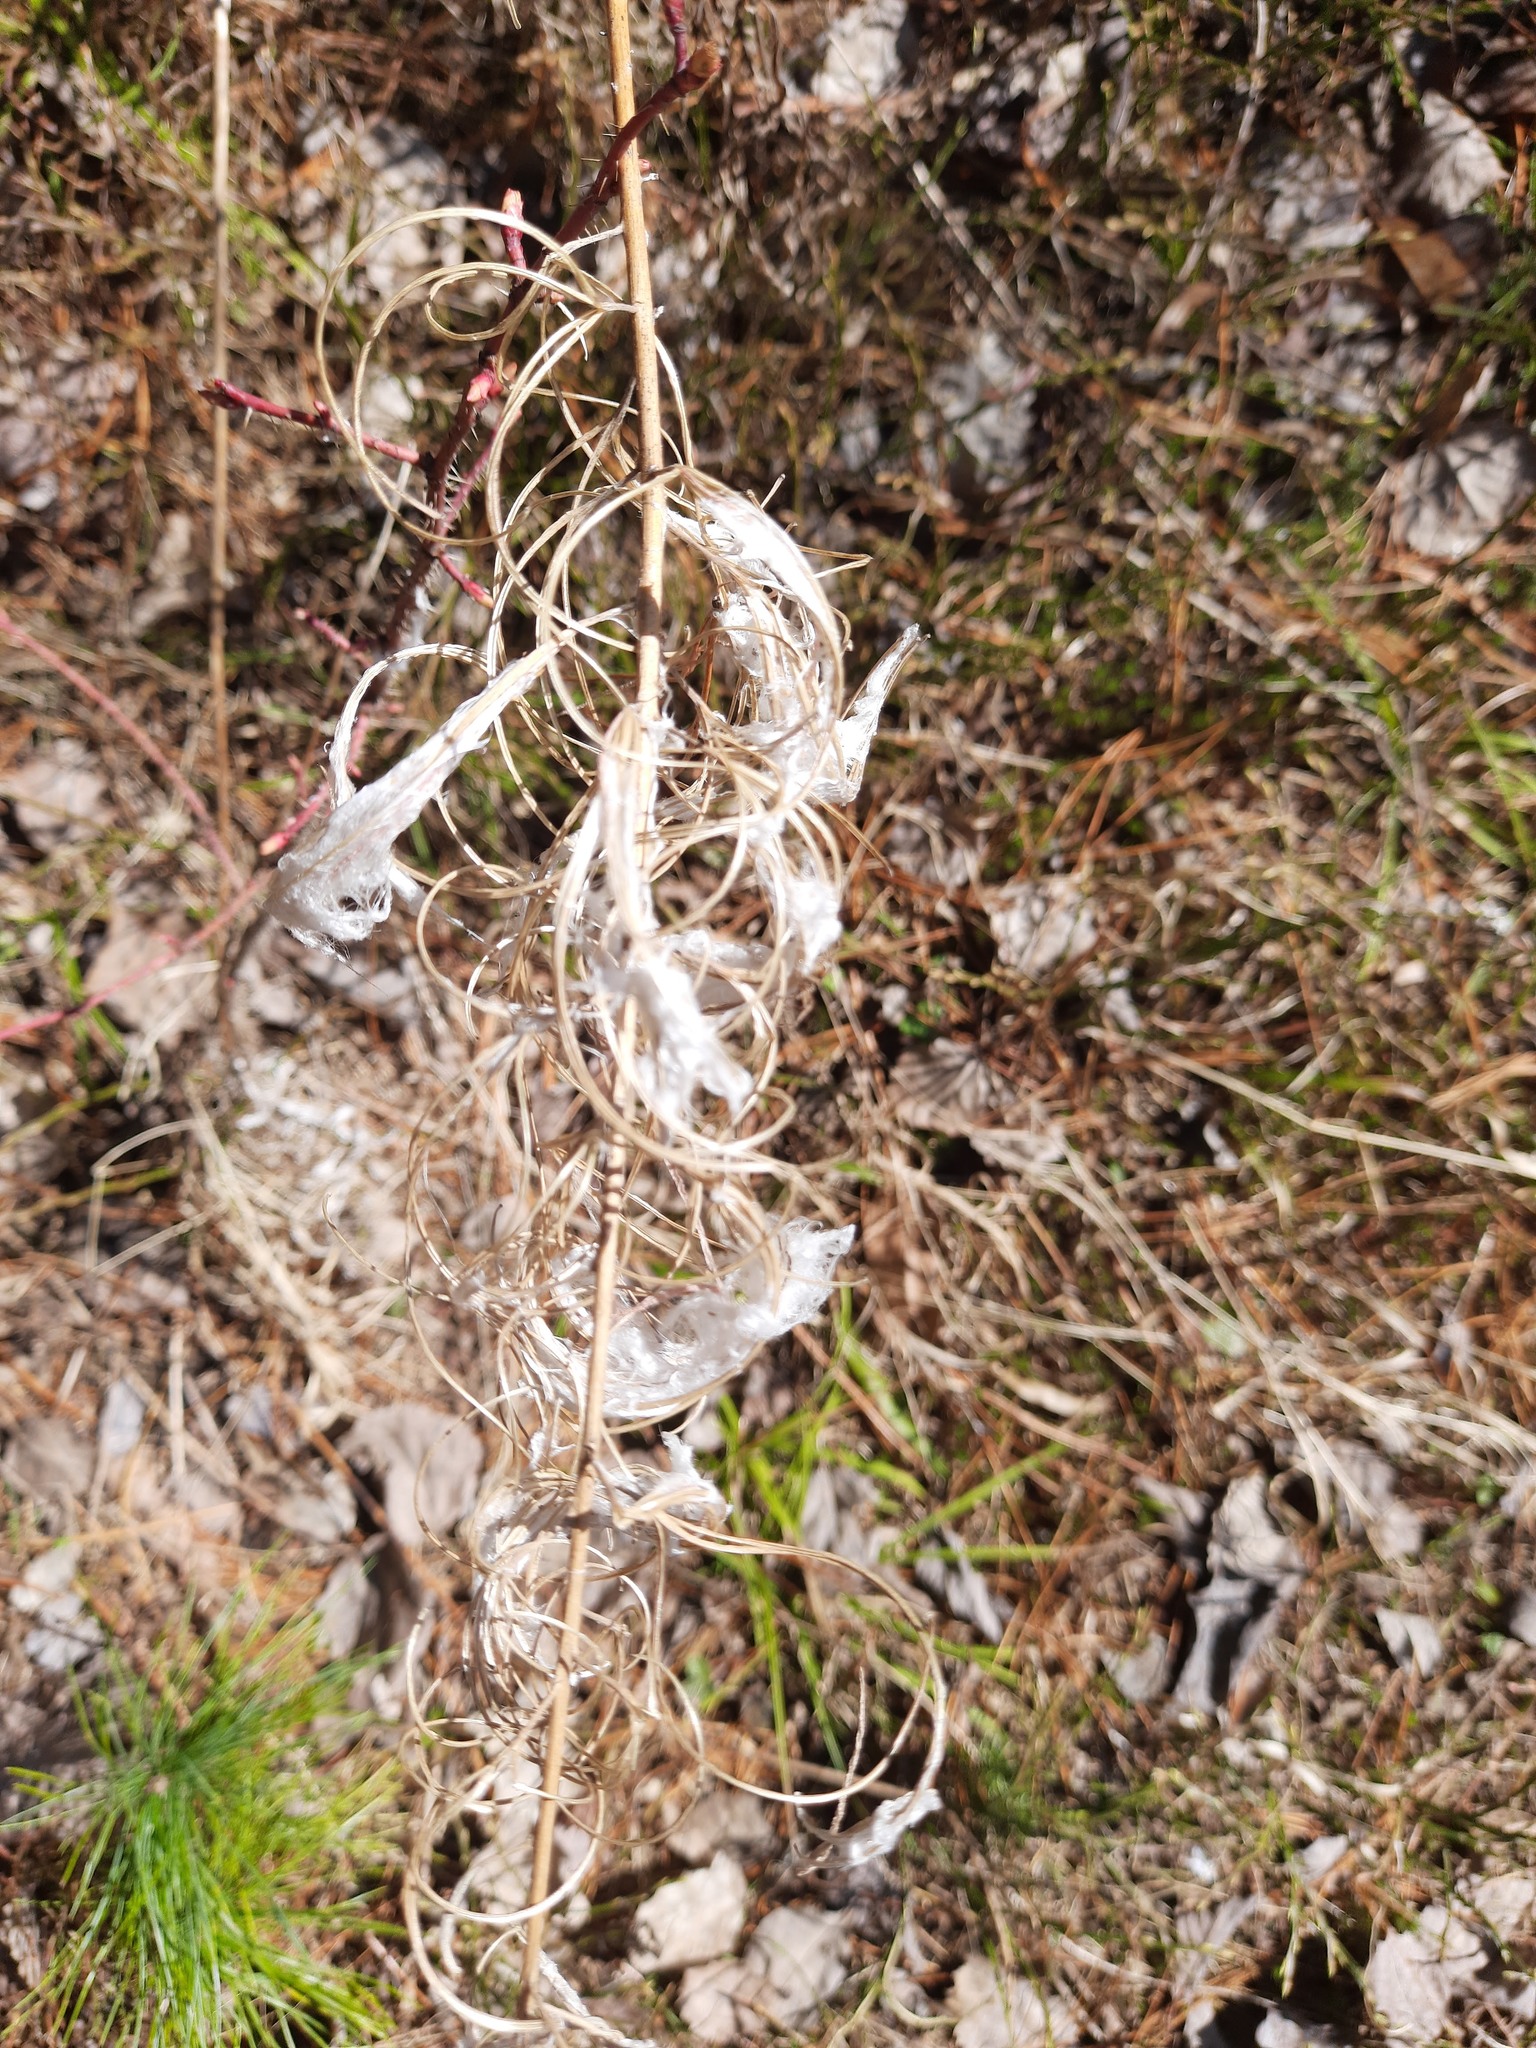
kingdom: Plantae
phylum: Tracheophyta
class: Magnoliopsida
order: Myrtales
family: Onagraceae
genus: Chamaenerion
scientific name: Chamaenerion angustifolium
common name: Fireweed
